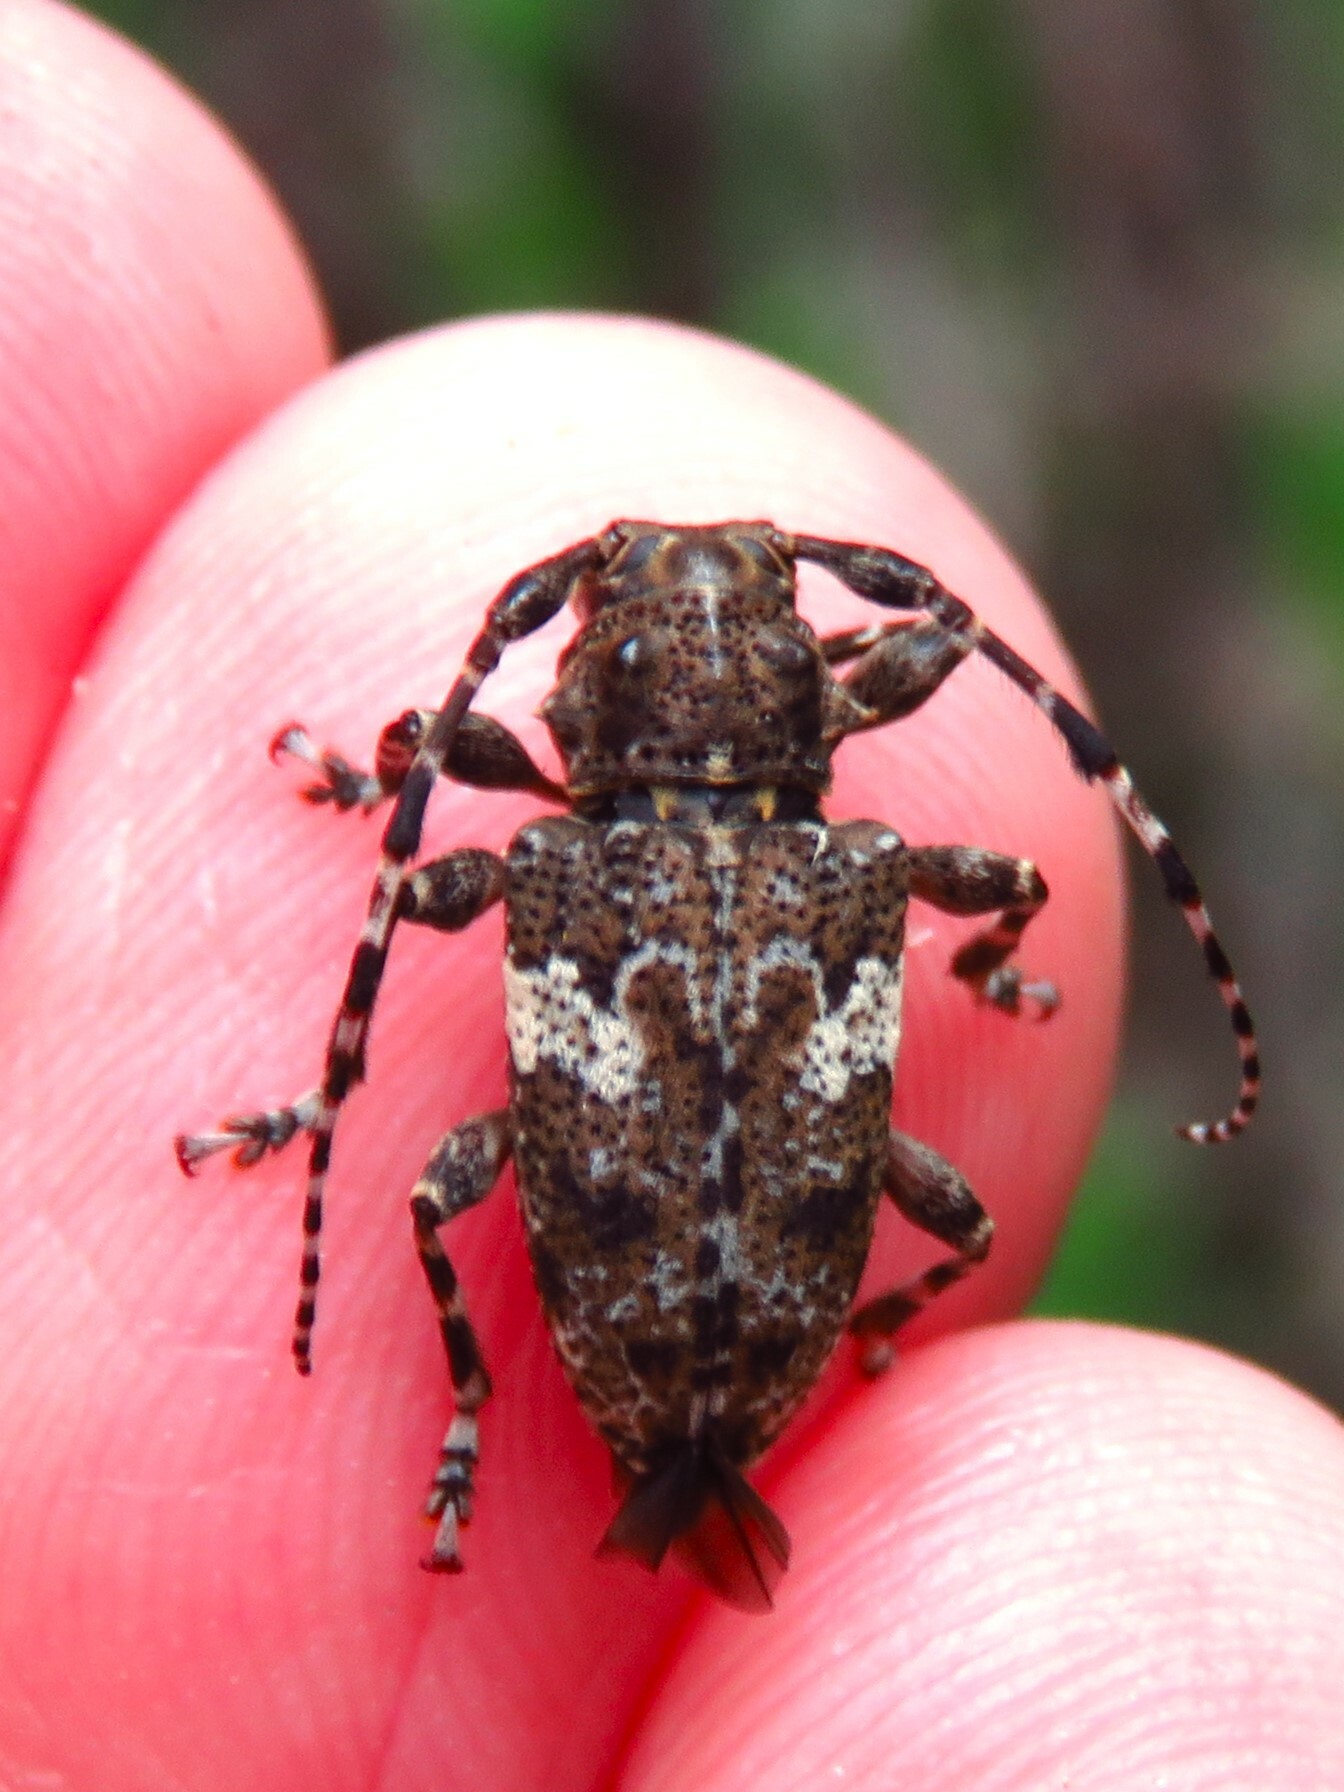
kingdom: Animalia
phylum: Arthropoda
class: Insecta
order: Coleoptera
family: Cerambycidae
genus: Acanthoderes
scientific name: Acanthoderes quadrigibba
